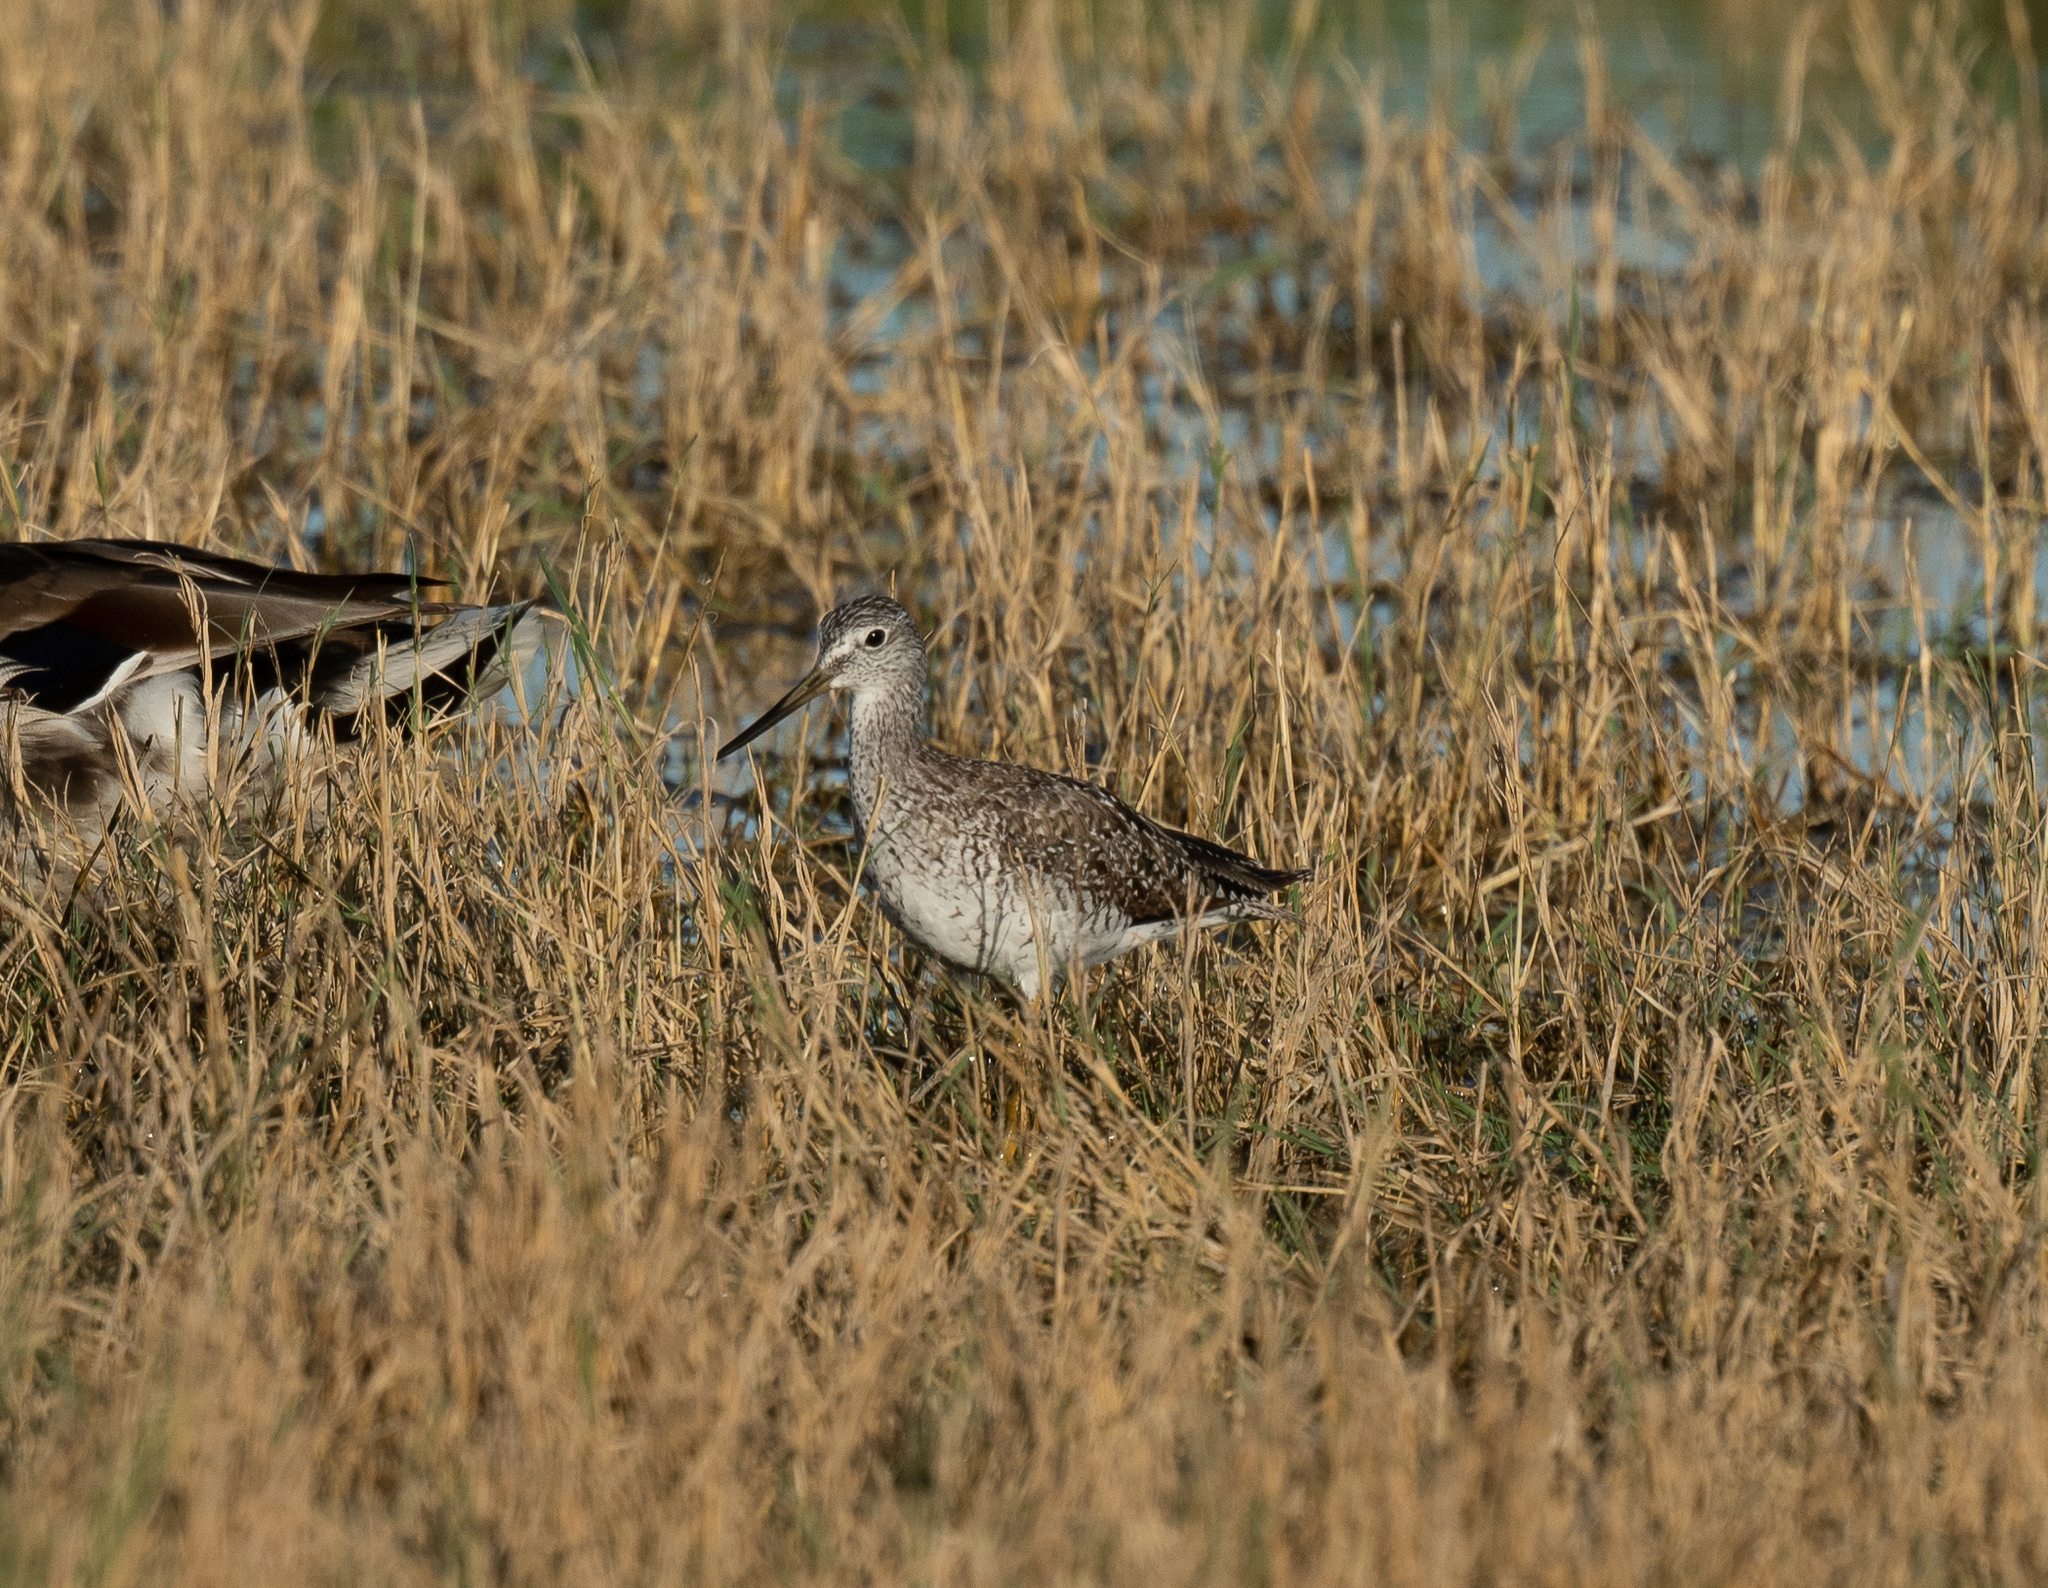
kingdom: Animalia
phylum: Chordata
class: Aves
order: Charadriiformes
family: Scolopacidae
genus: Tringa
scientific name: Tringa melanoleuca
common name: Greater yellowlegs
